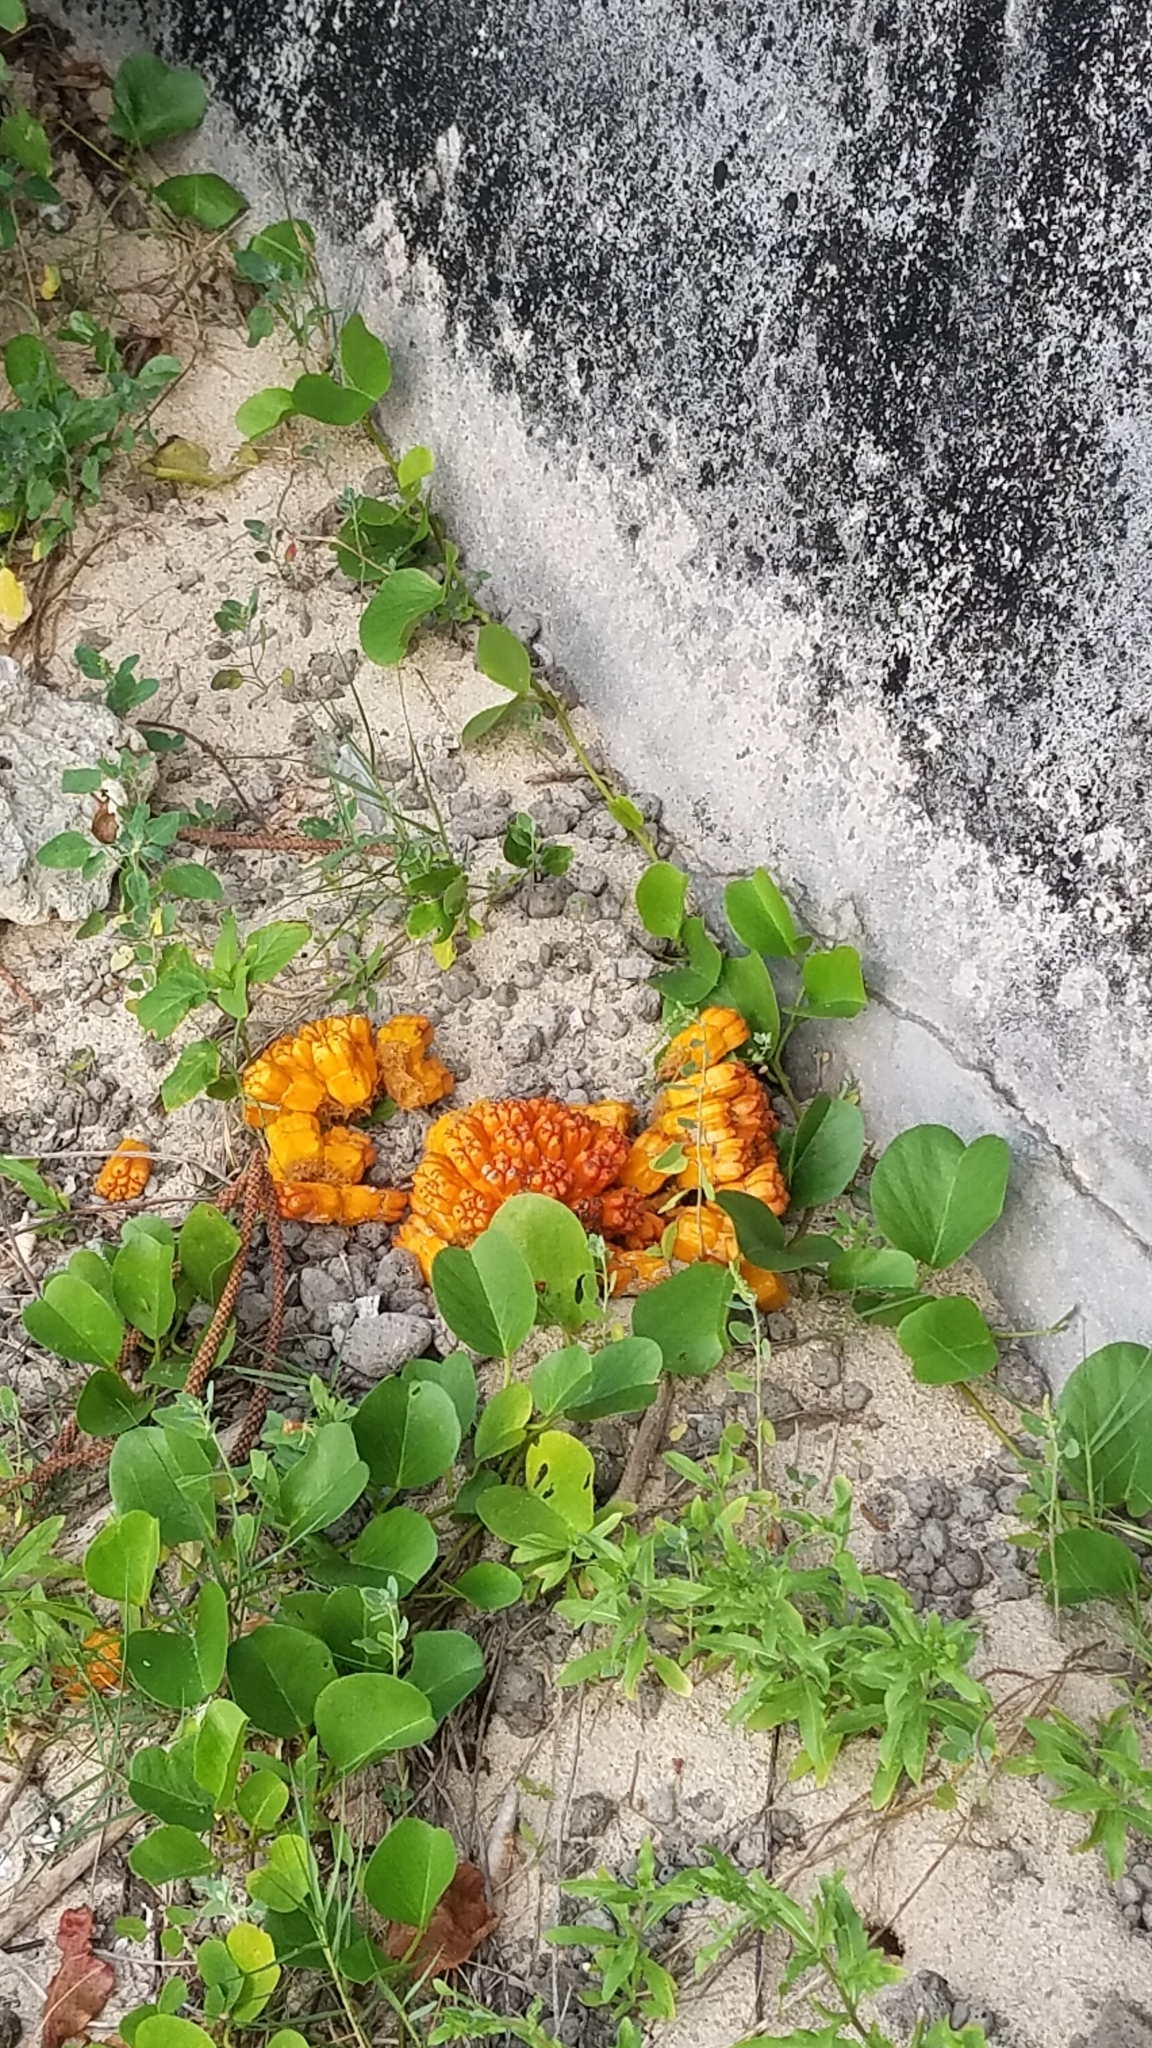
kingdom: Plantae
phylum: Tracheophyta
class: Liliopsida
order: Pandanales
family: Pandanaceae
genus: Pandanus
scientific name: Pandanus odorifer
